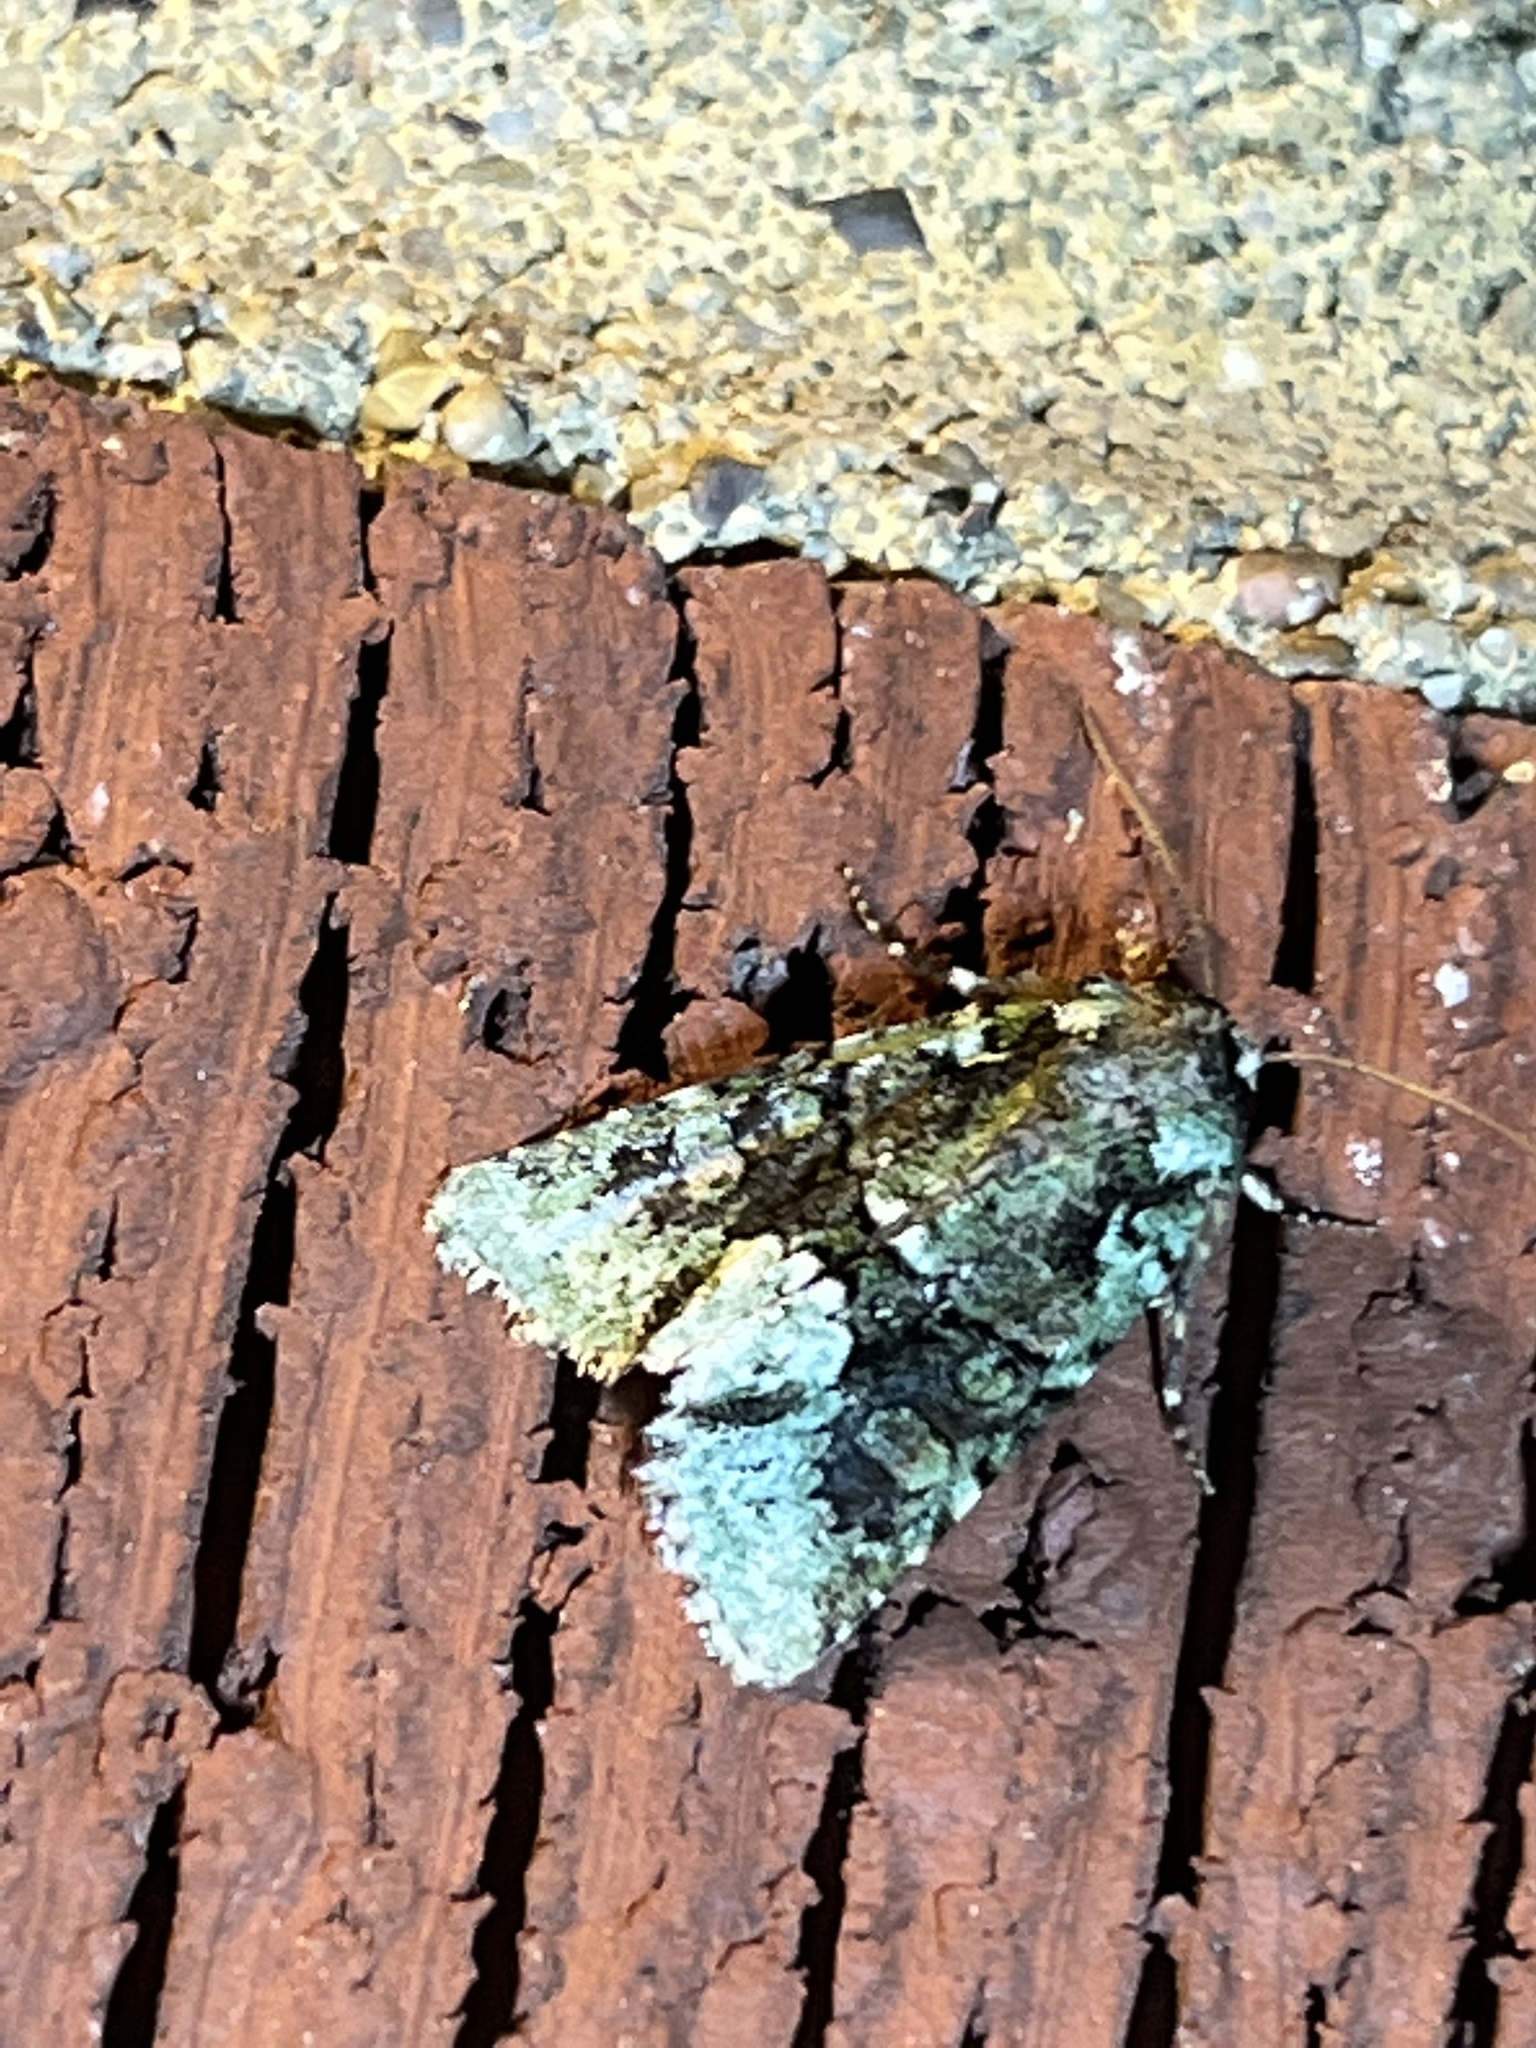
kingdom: Animalia
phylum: Arthropoda
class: Insecta
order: Lepidoptera
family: Noctuidae
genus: Lacinipolia
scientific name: Lacinipolia explicata
